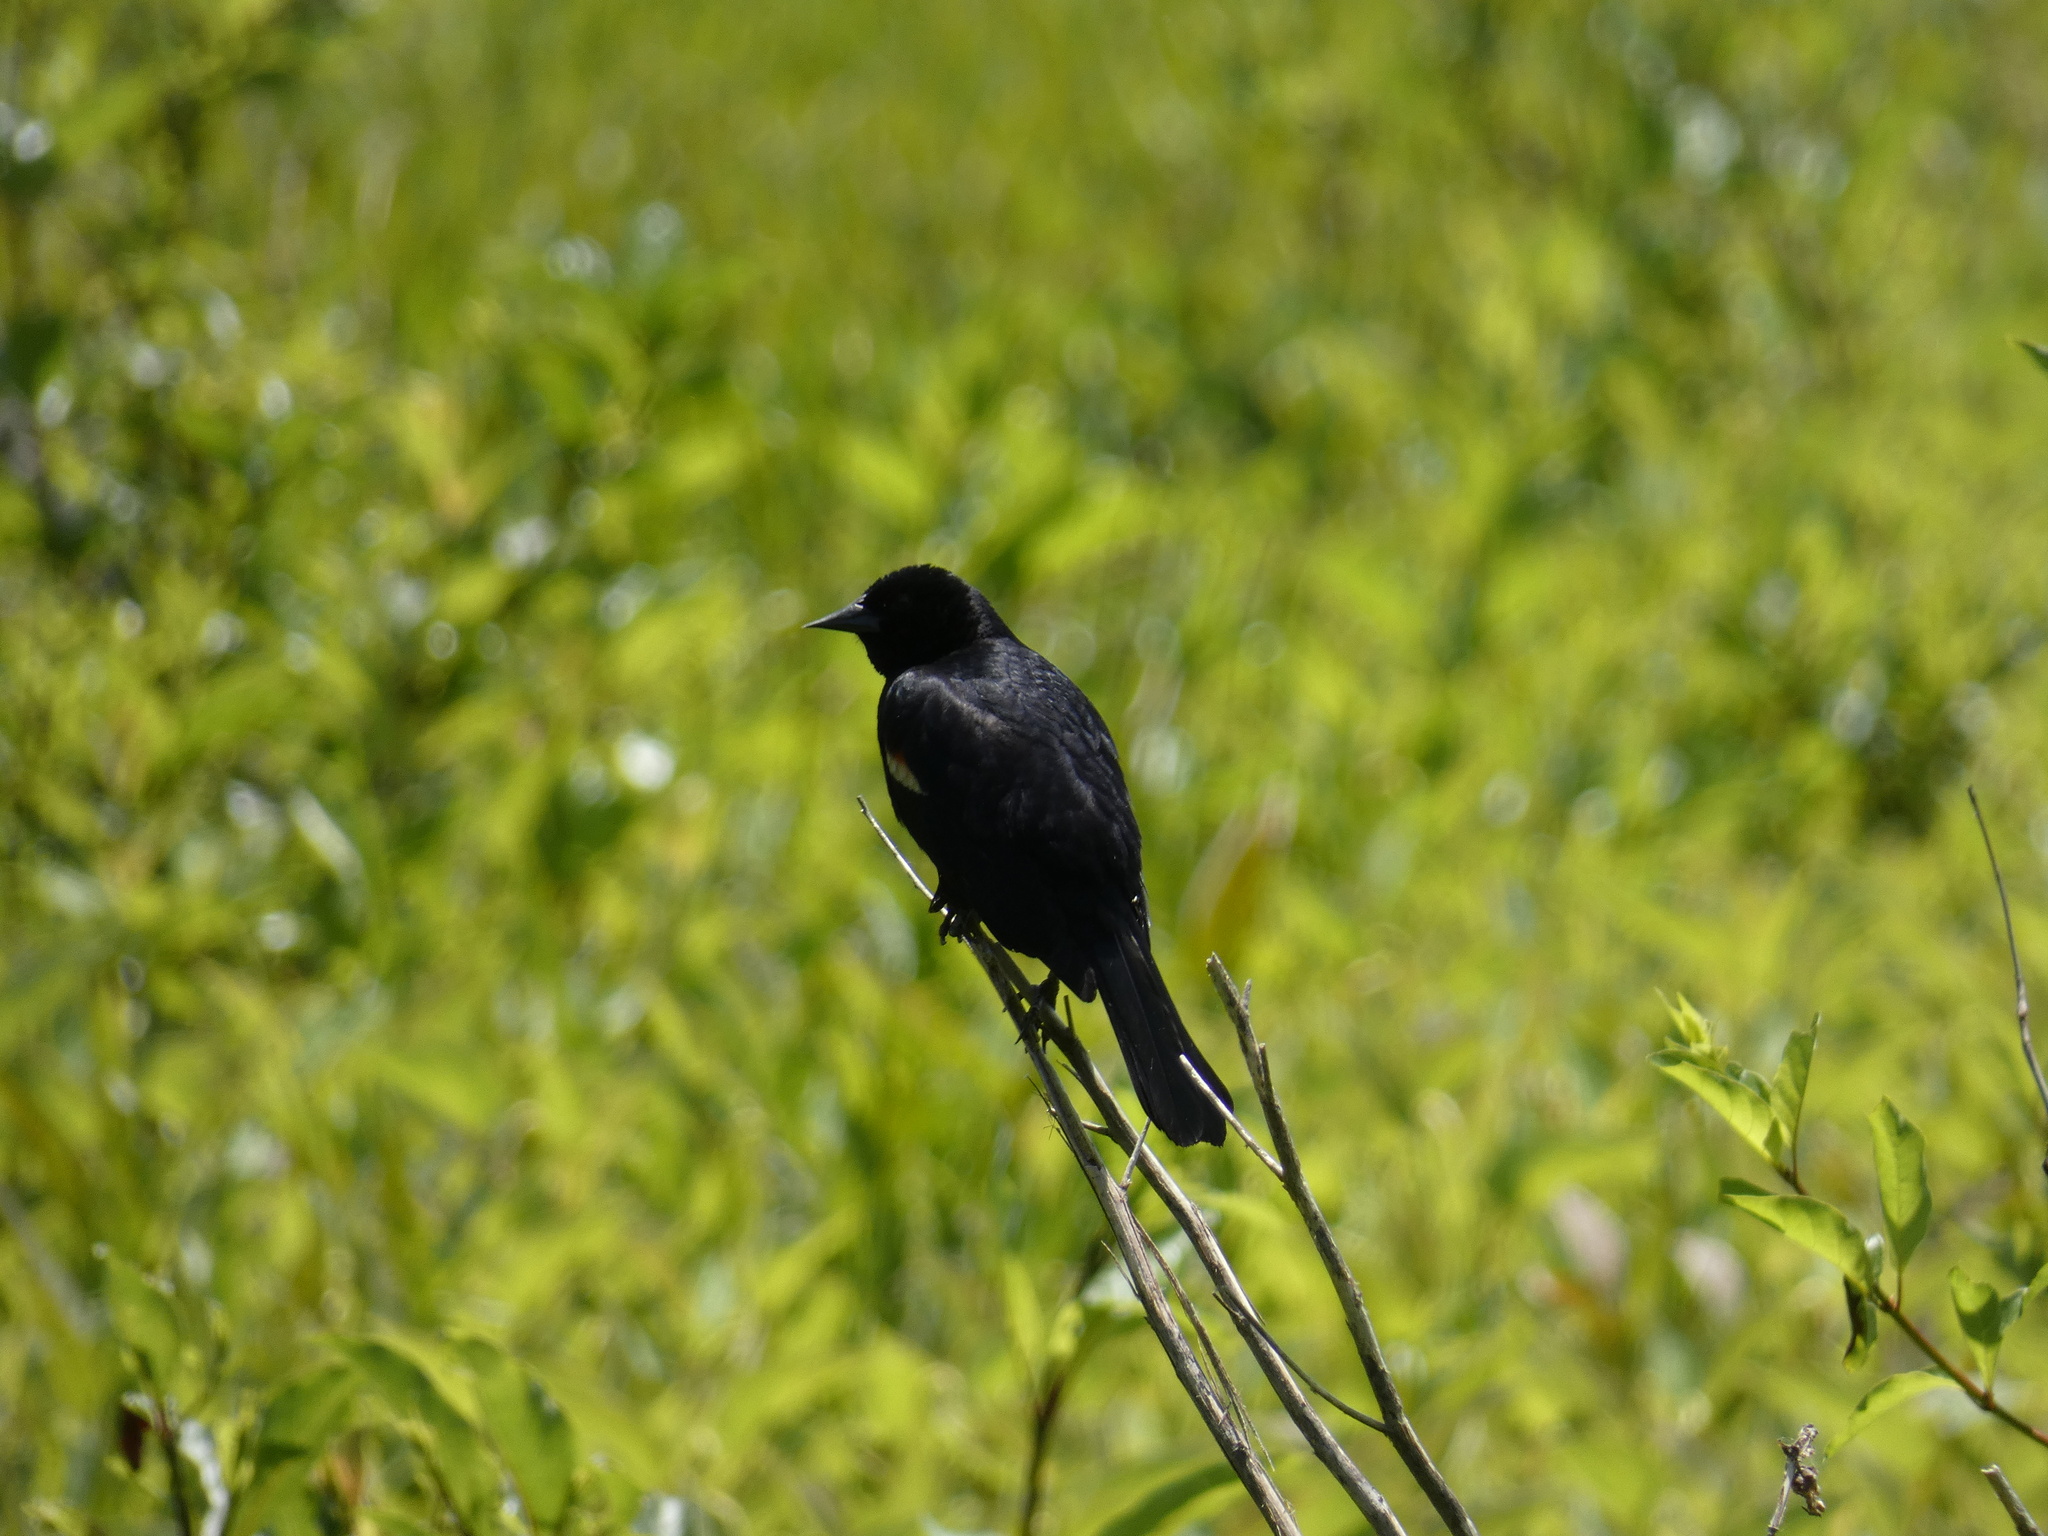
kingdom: Animalia
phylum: Chordata
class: Aves
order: Passeriformes
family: Icteridae
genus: Agelaius
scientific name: Agelaius phoeniceus
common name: Red-winged blackbird
